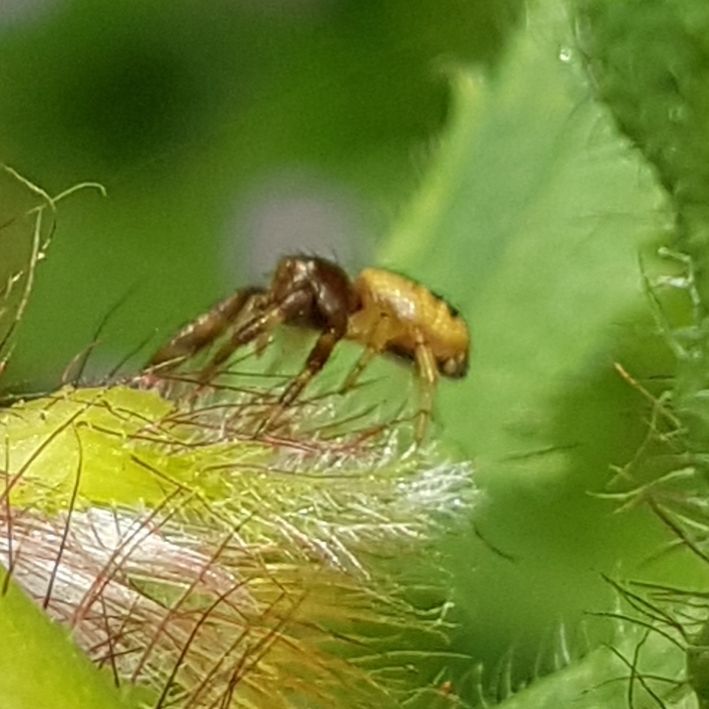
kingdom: Animalia
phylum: Arthropoda
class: Arachnida
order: Araneae
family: Thomisidae
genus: Synema
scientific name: Synema globosum
